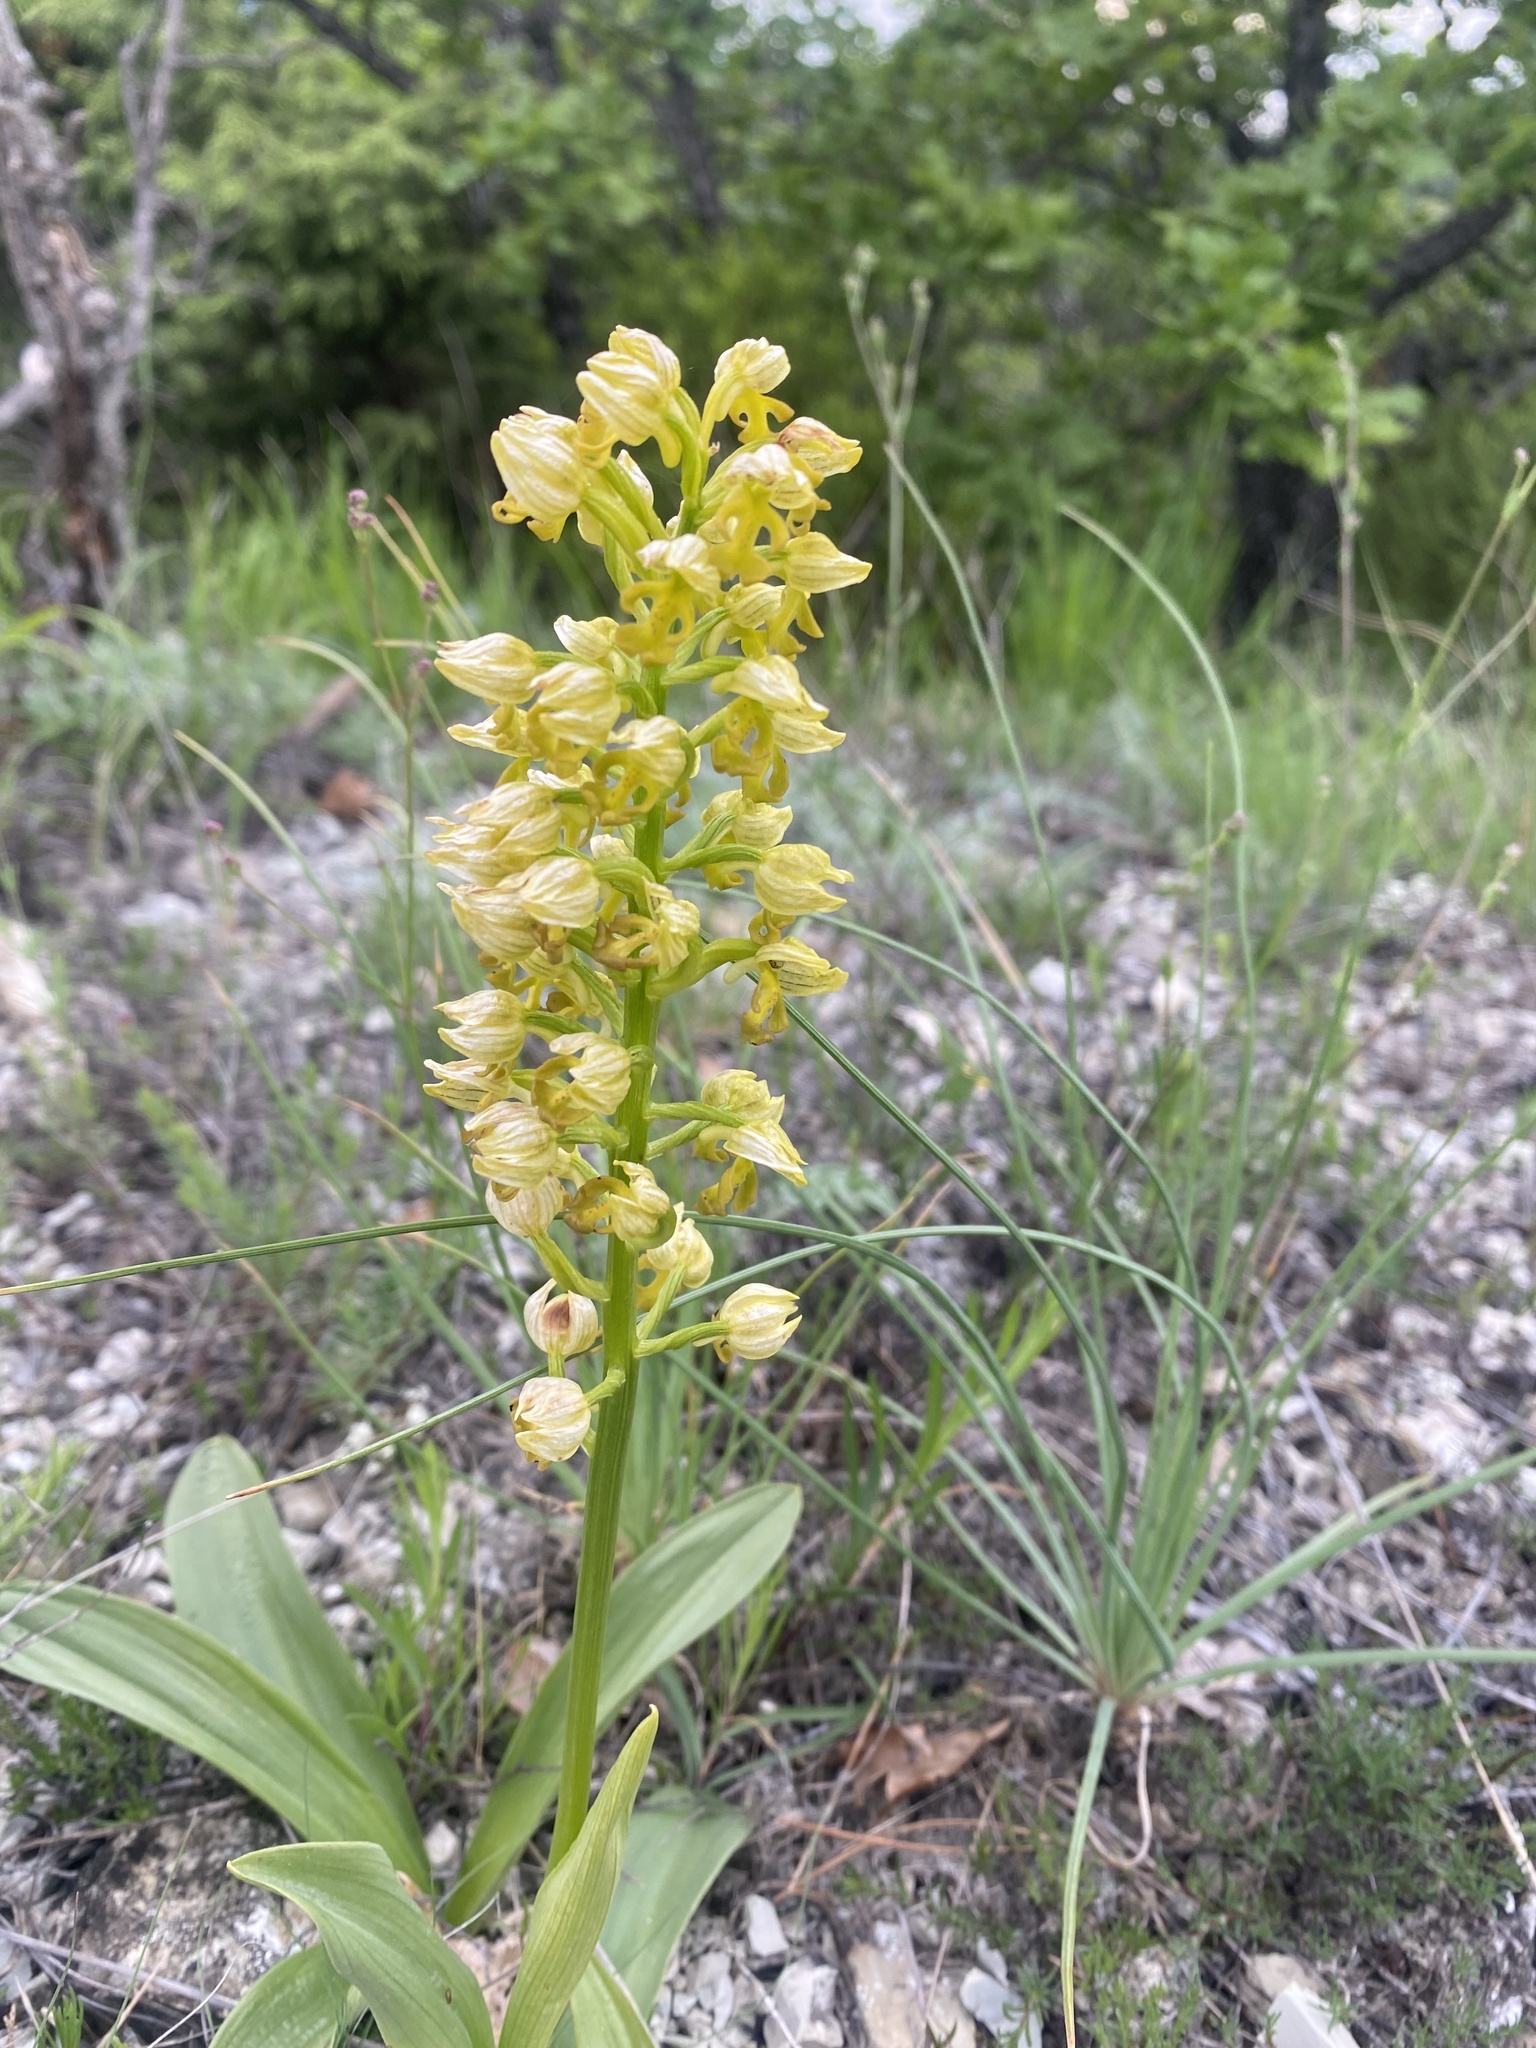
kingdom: Plantae
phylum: Tracheophyta
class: Liliopsida
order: Asparagales
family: Orchidaceae
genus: Orchis
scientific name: Orchis punctulata
